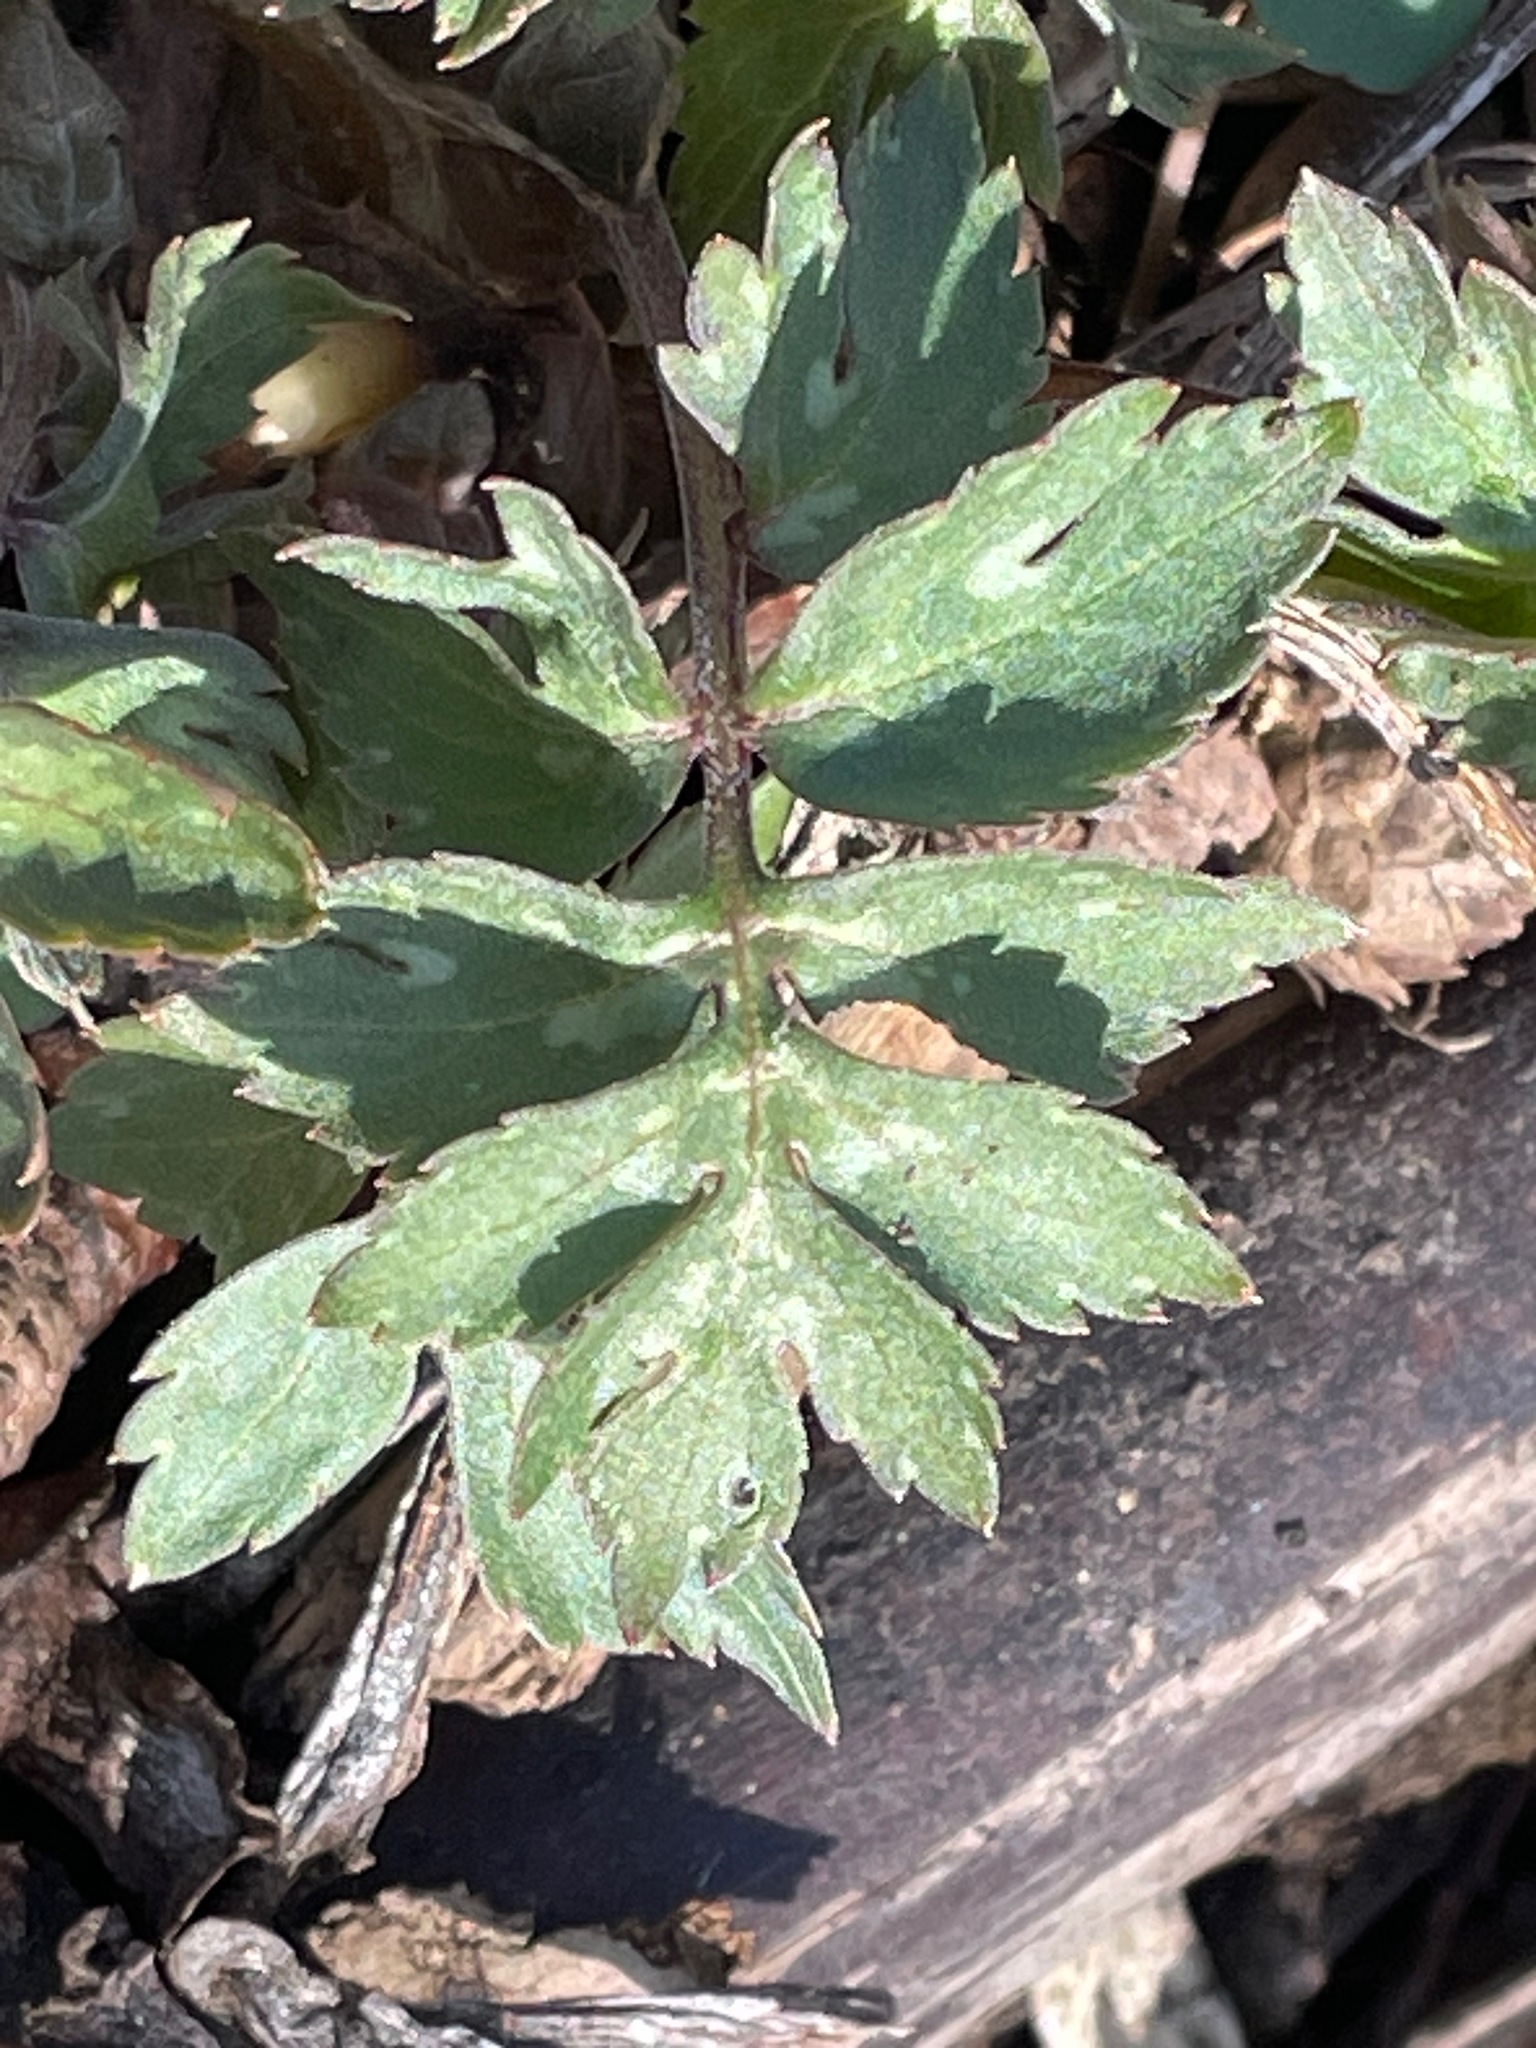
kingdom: Plantae
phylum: Tracheophyta
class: Magnoliopsida
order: Boraginales
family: Hydrophyllaceae
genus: Hydrophyllum
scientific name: Hydrophyllum virginianum
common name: Virginia waterleaf
